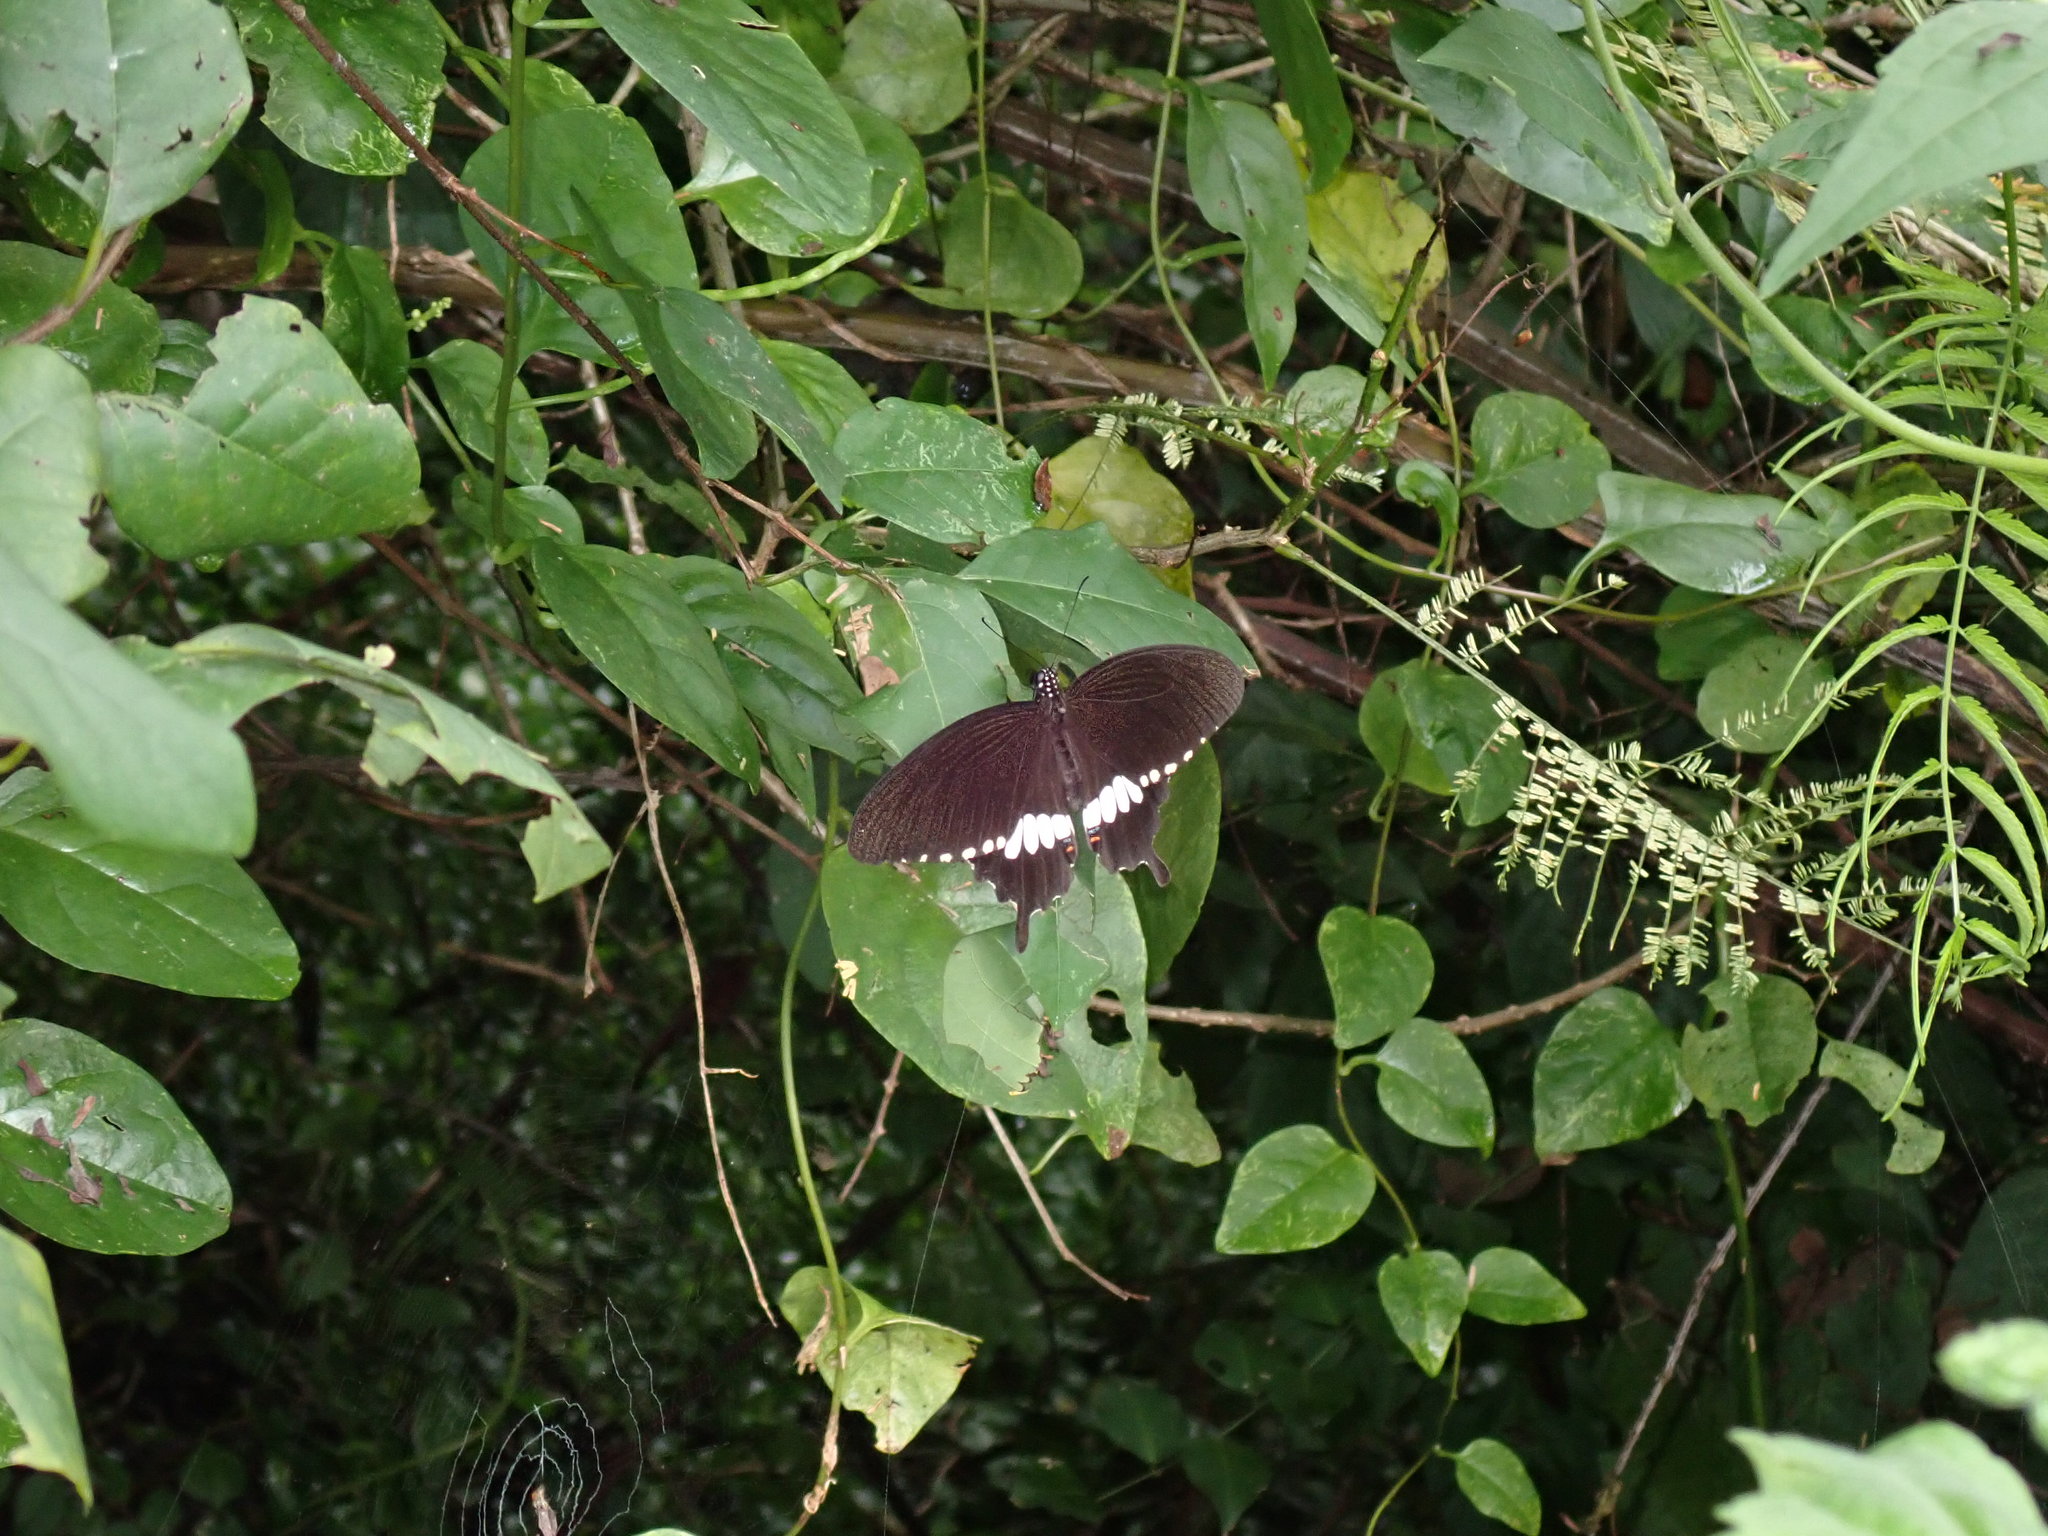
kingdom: Animalia
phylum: Arthropoda
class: Insecta
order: Lepidoptera
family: Papilionidae
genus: Papilio
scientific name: Papilio polytes
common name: Common mormon
